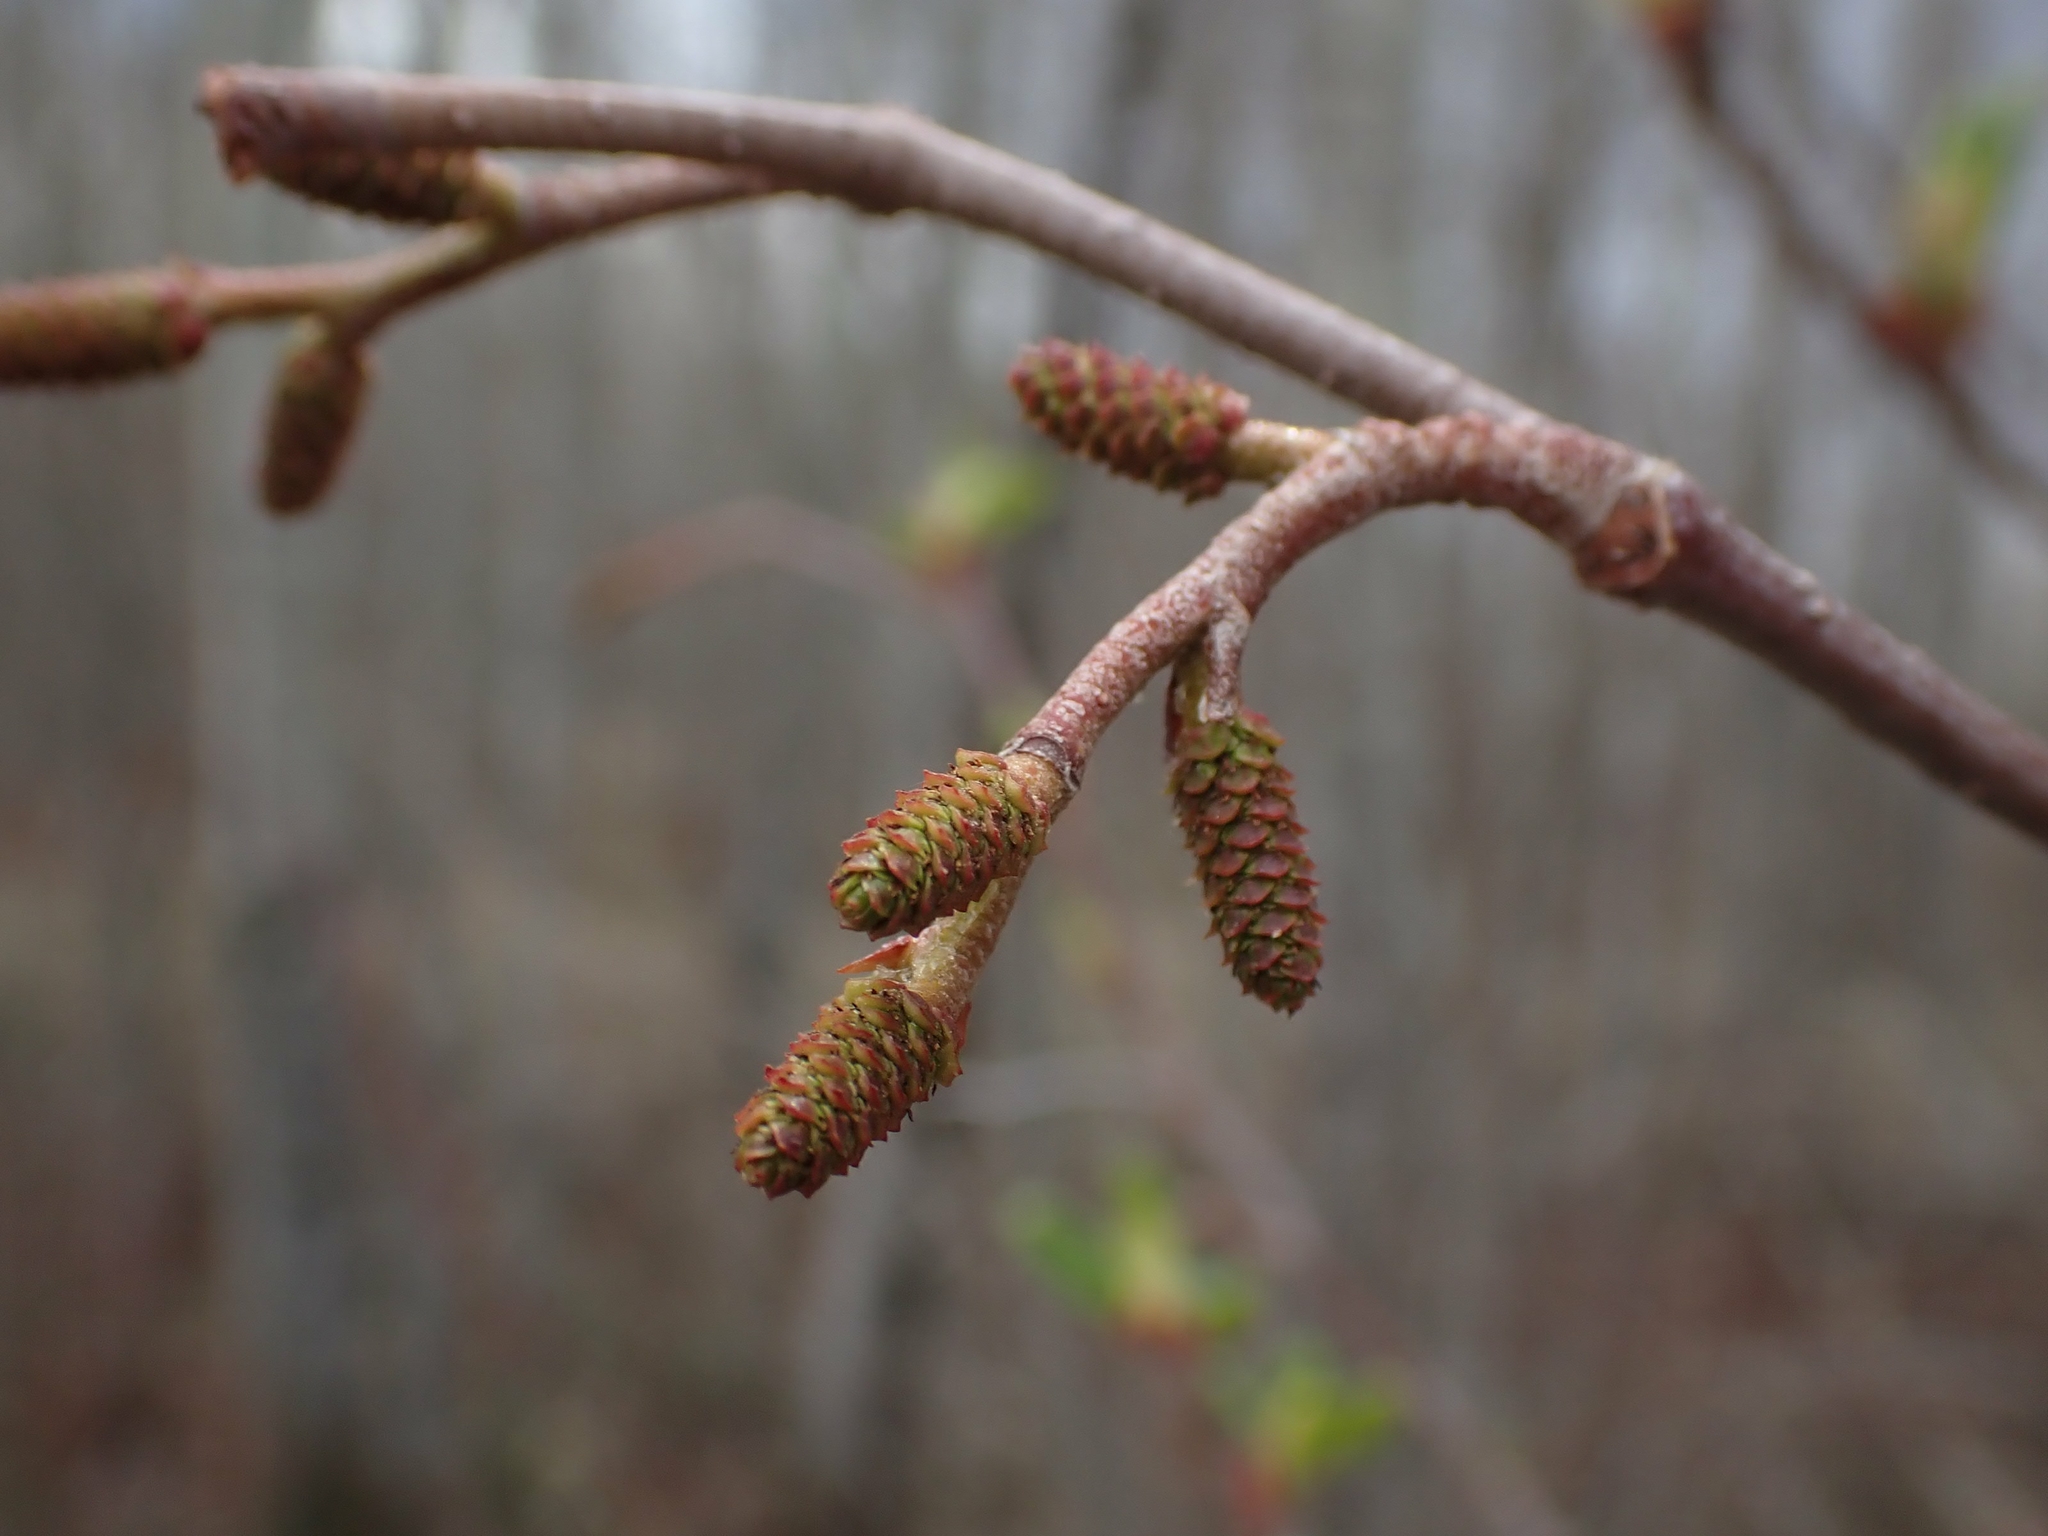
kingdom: Plantae
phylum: Tracheophyta
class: Magnoliopsida
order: Fagales
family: Betulaceae
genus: Alnus
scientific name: Alnus incana
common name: Grey alder
